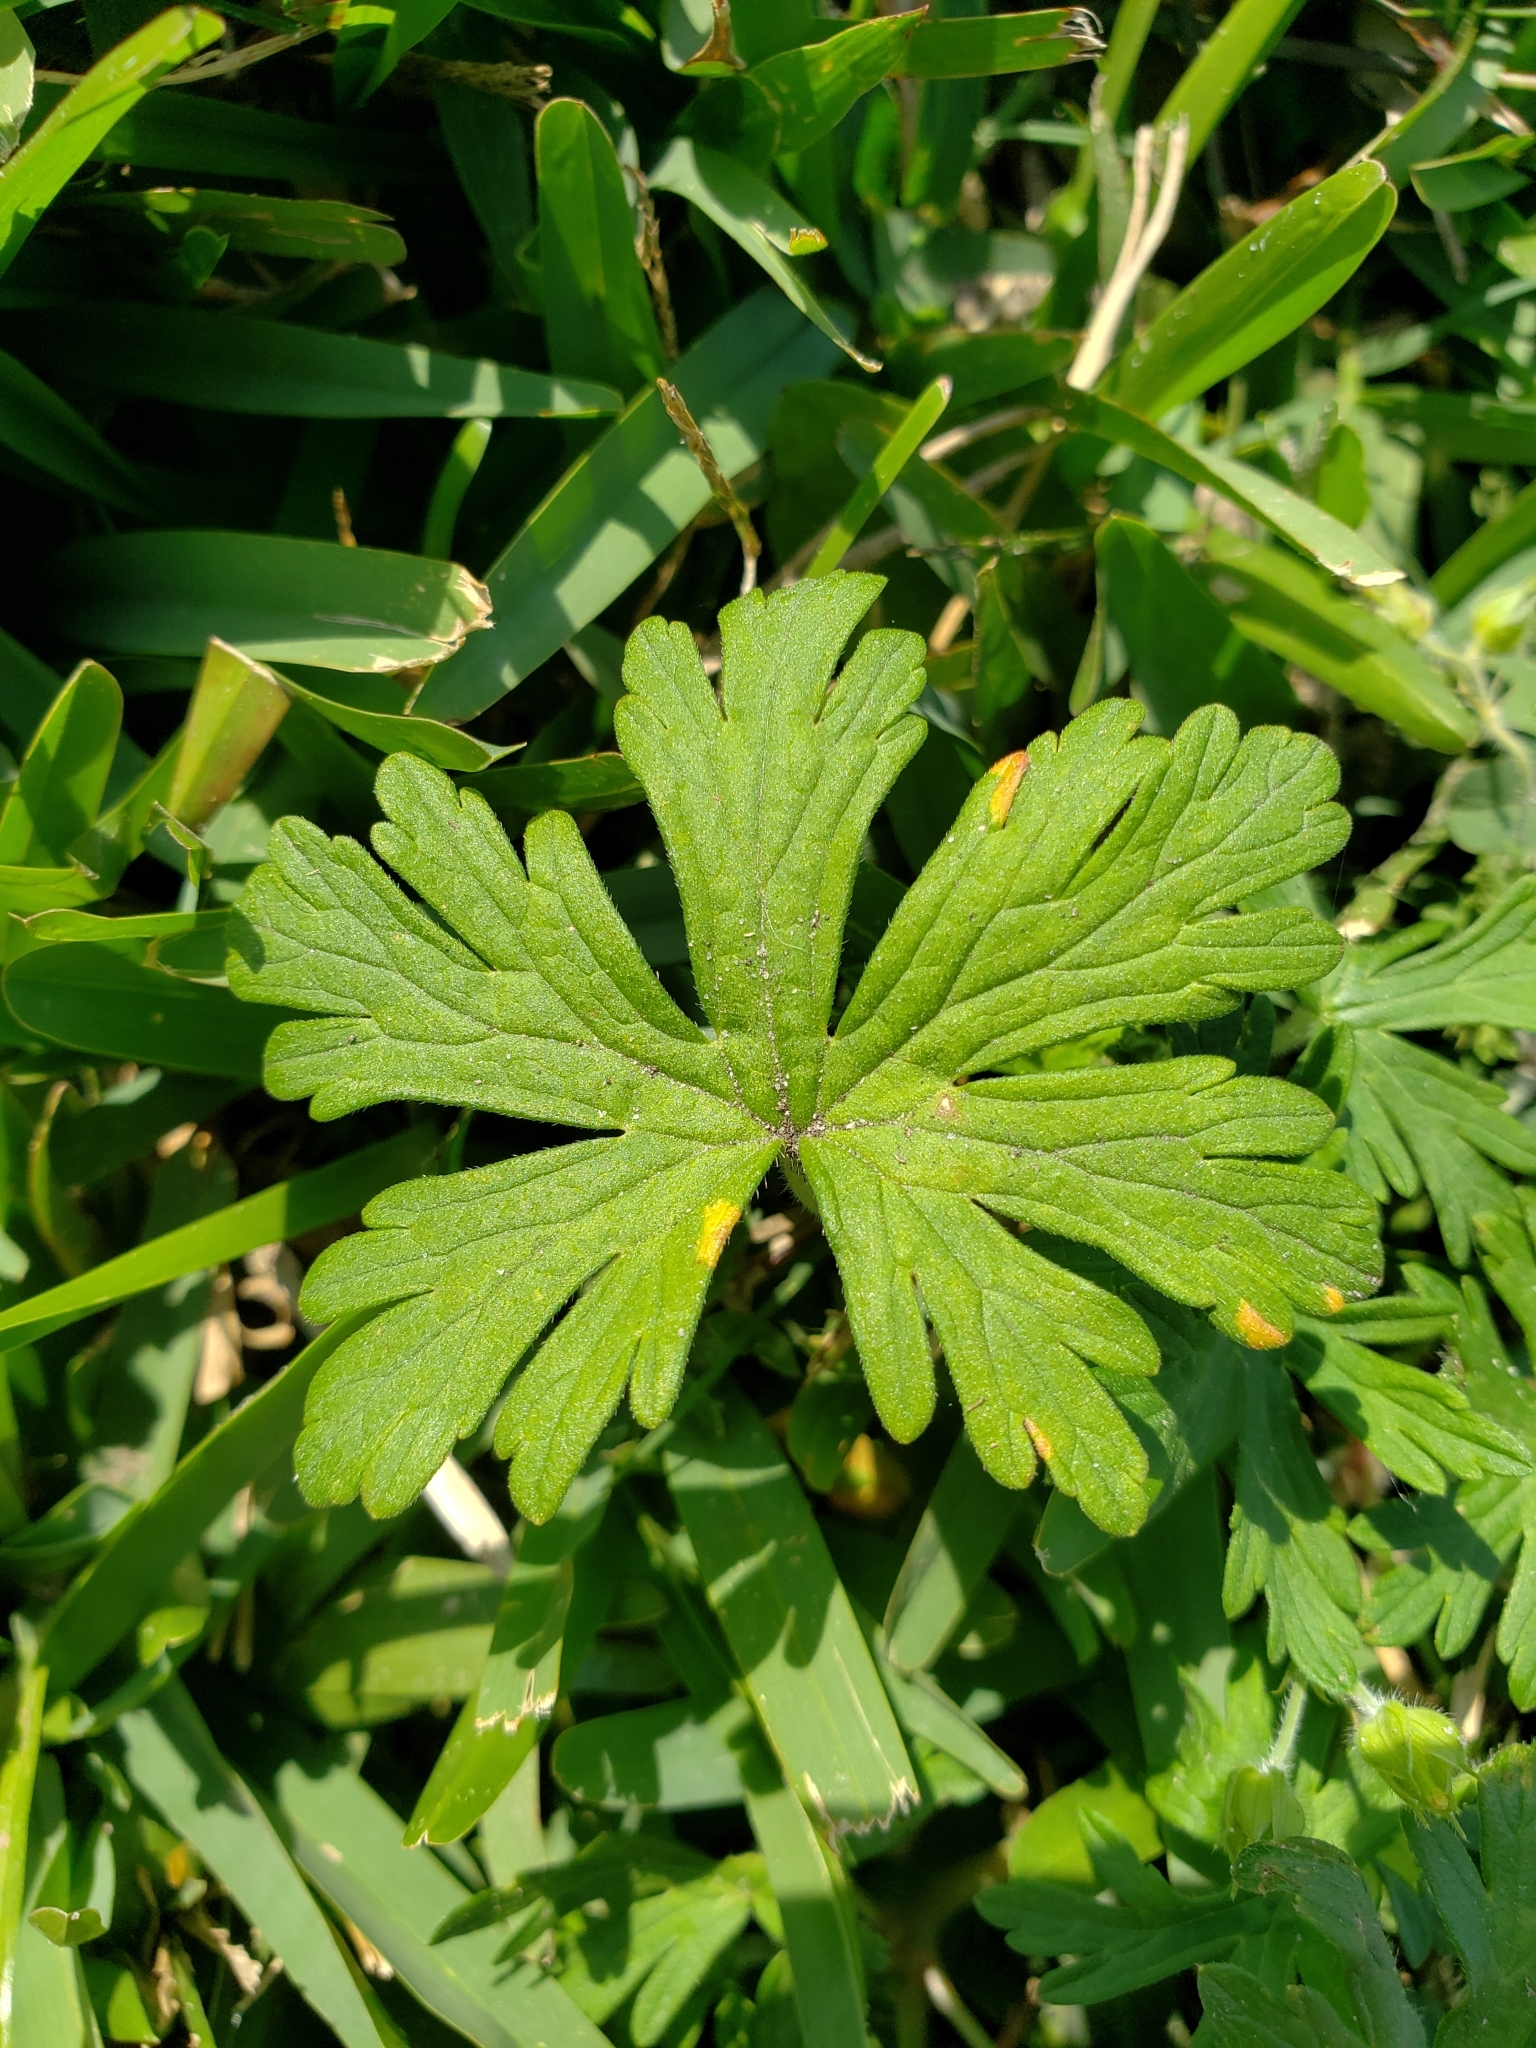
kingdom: Plantae
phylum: Tracheophyta
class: Magnoliopsida
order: Geraniales
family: Geraniaceae
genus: Geranium
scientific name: Geranium carolinianum
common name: Carolina crane's-bill
